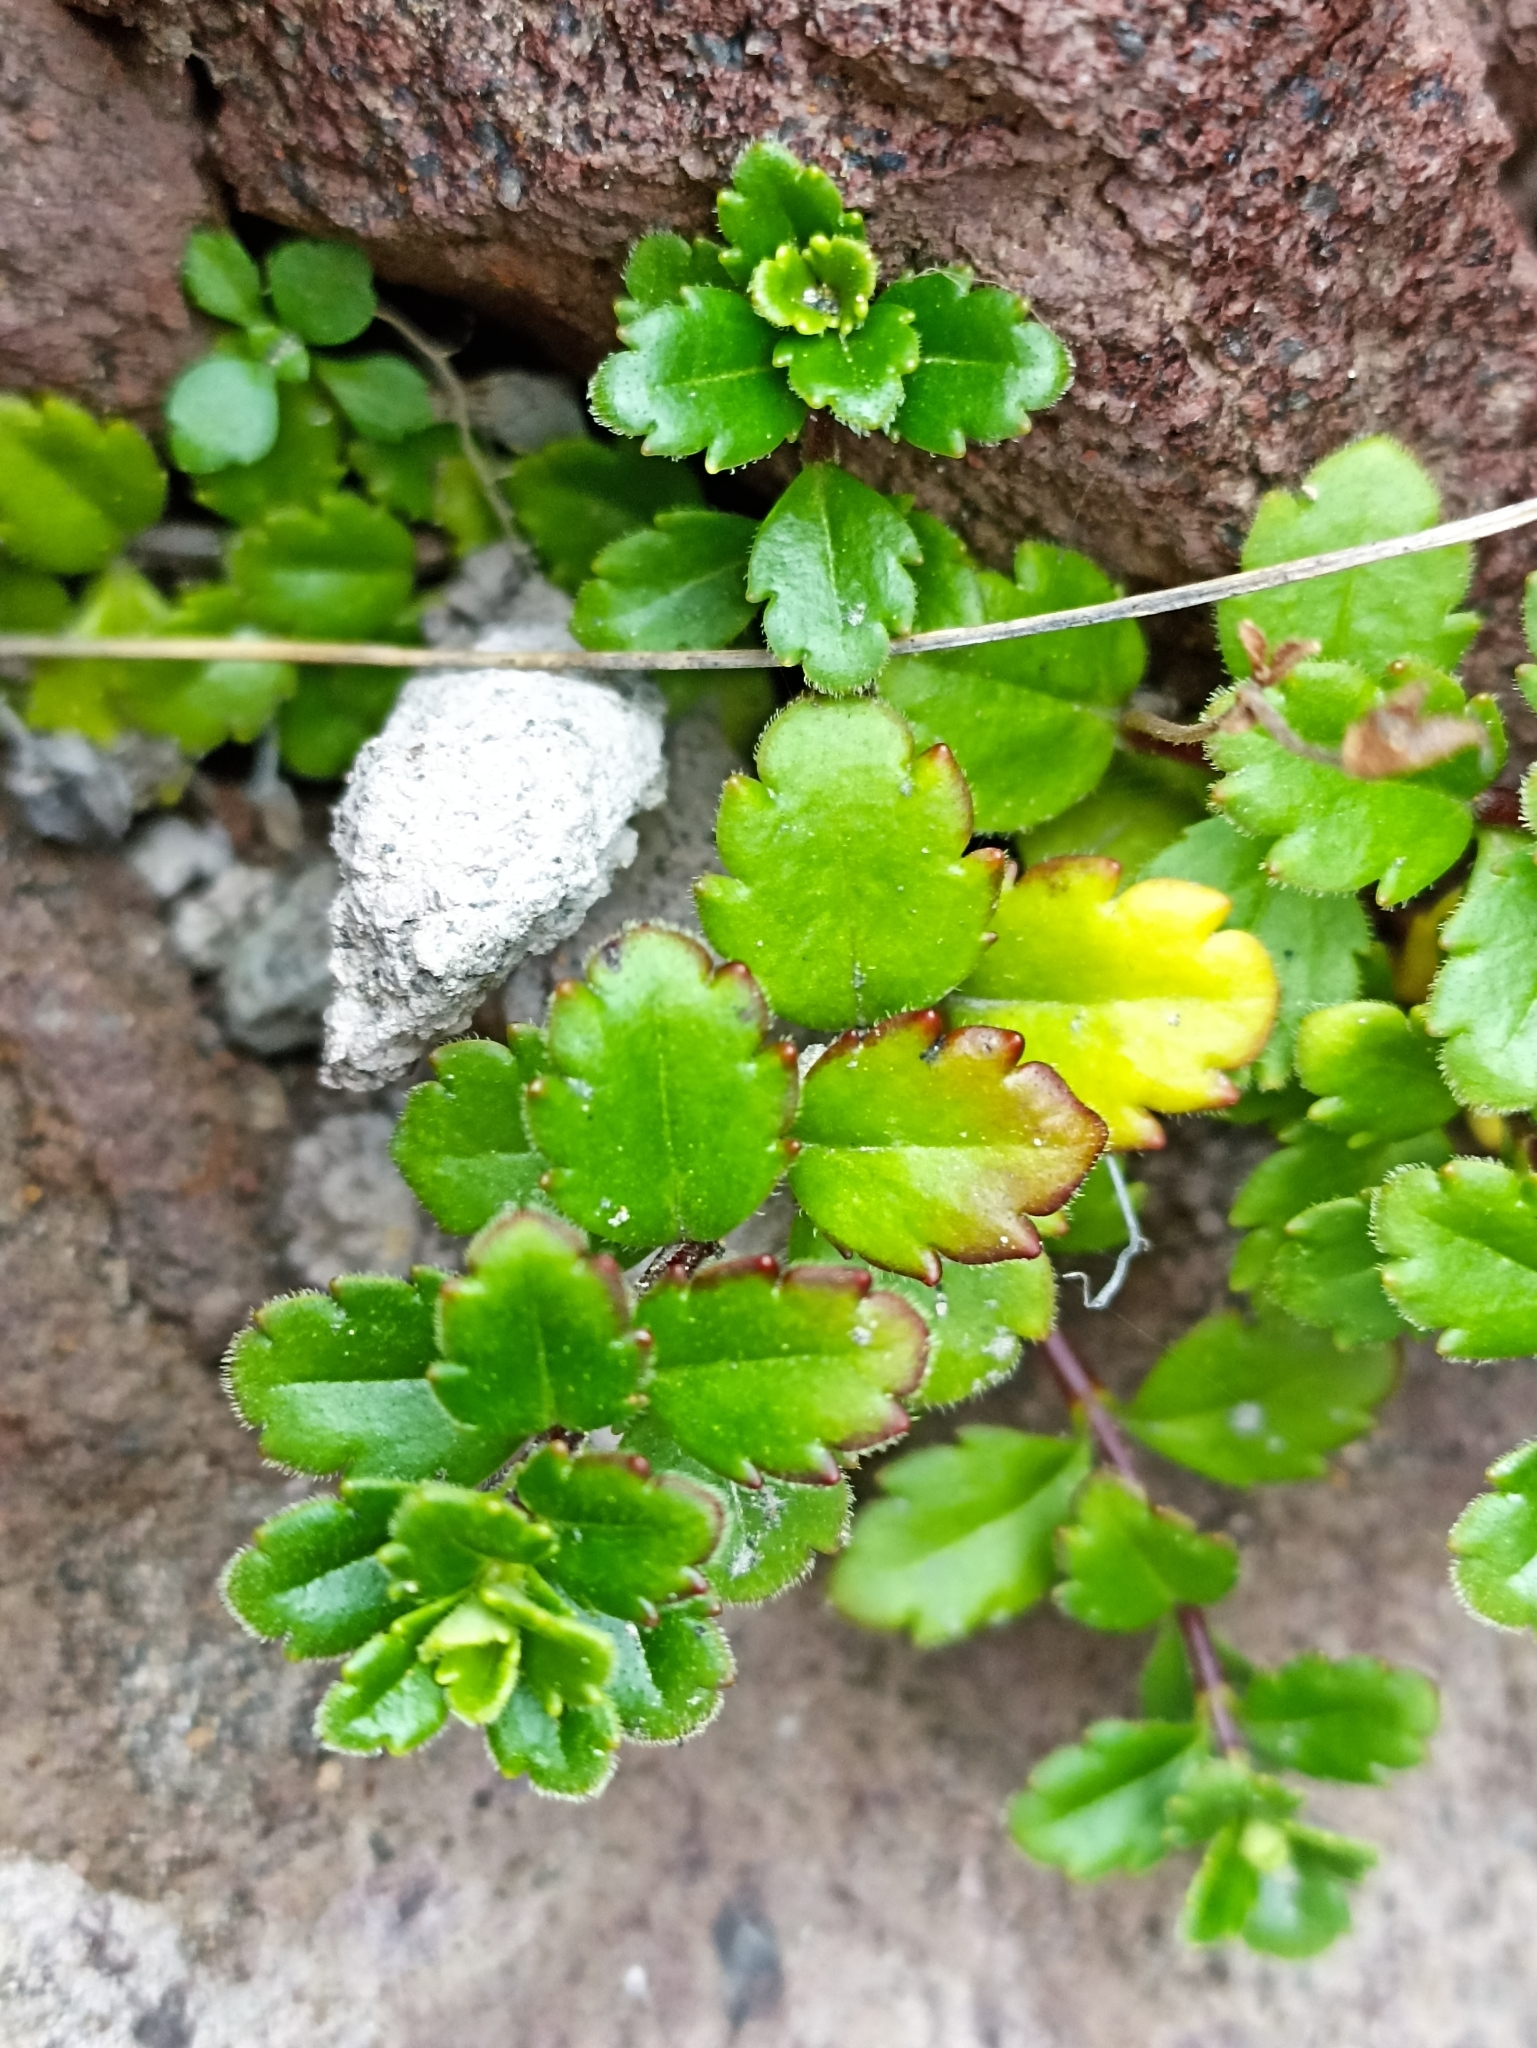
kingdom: Plantae
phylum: Tracheophyta
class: Magnoliopsida
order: Lamiales
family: Plantaginaceae
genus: Veronica
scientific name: Veronica hookeriana
